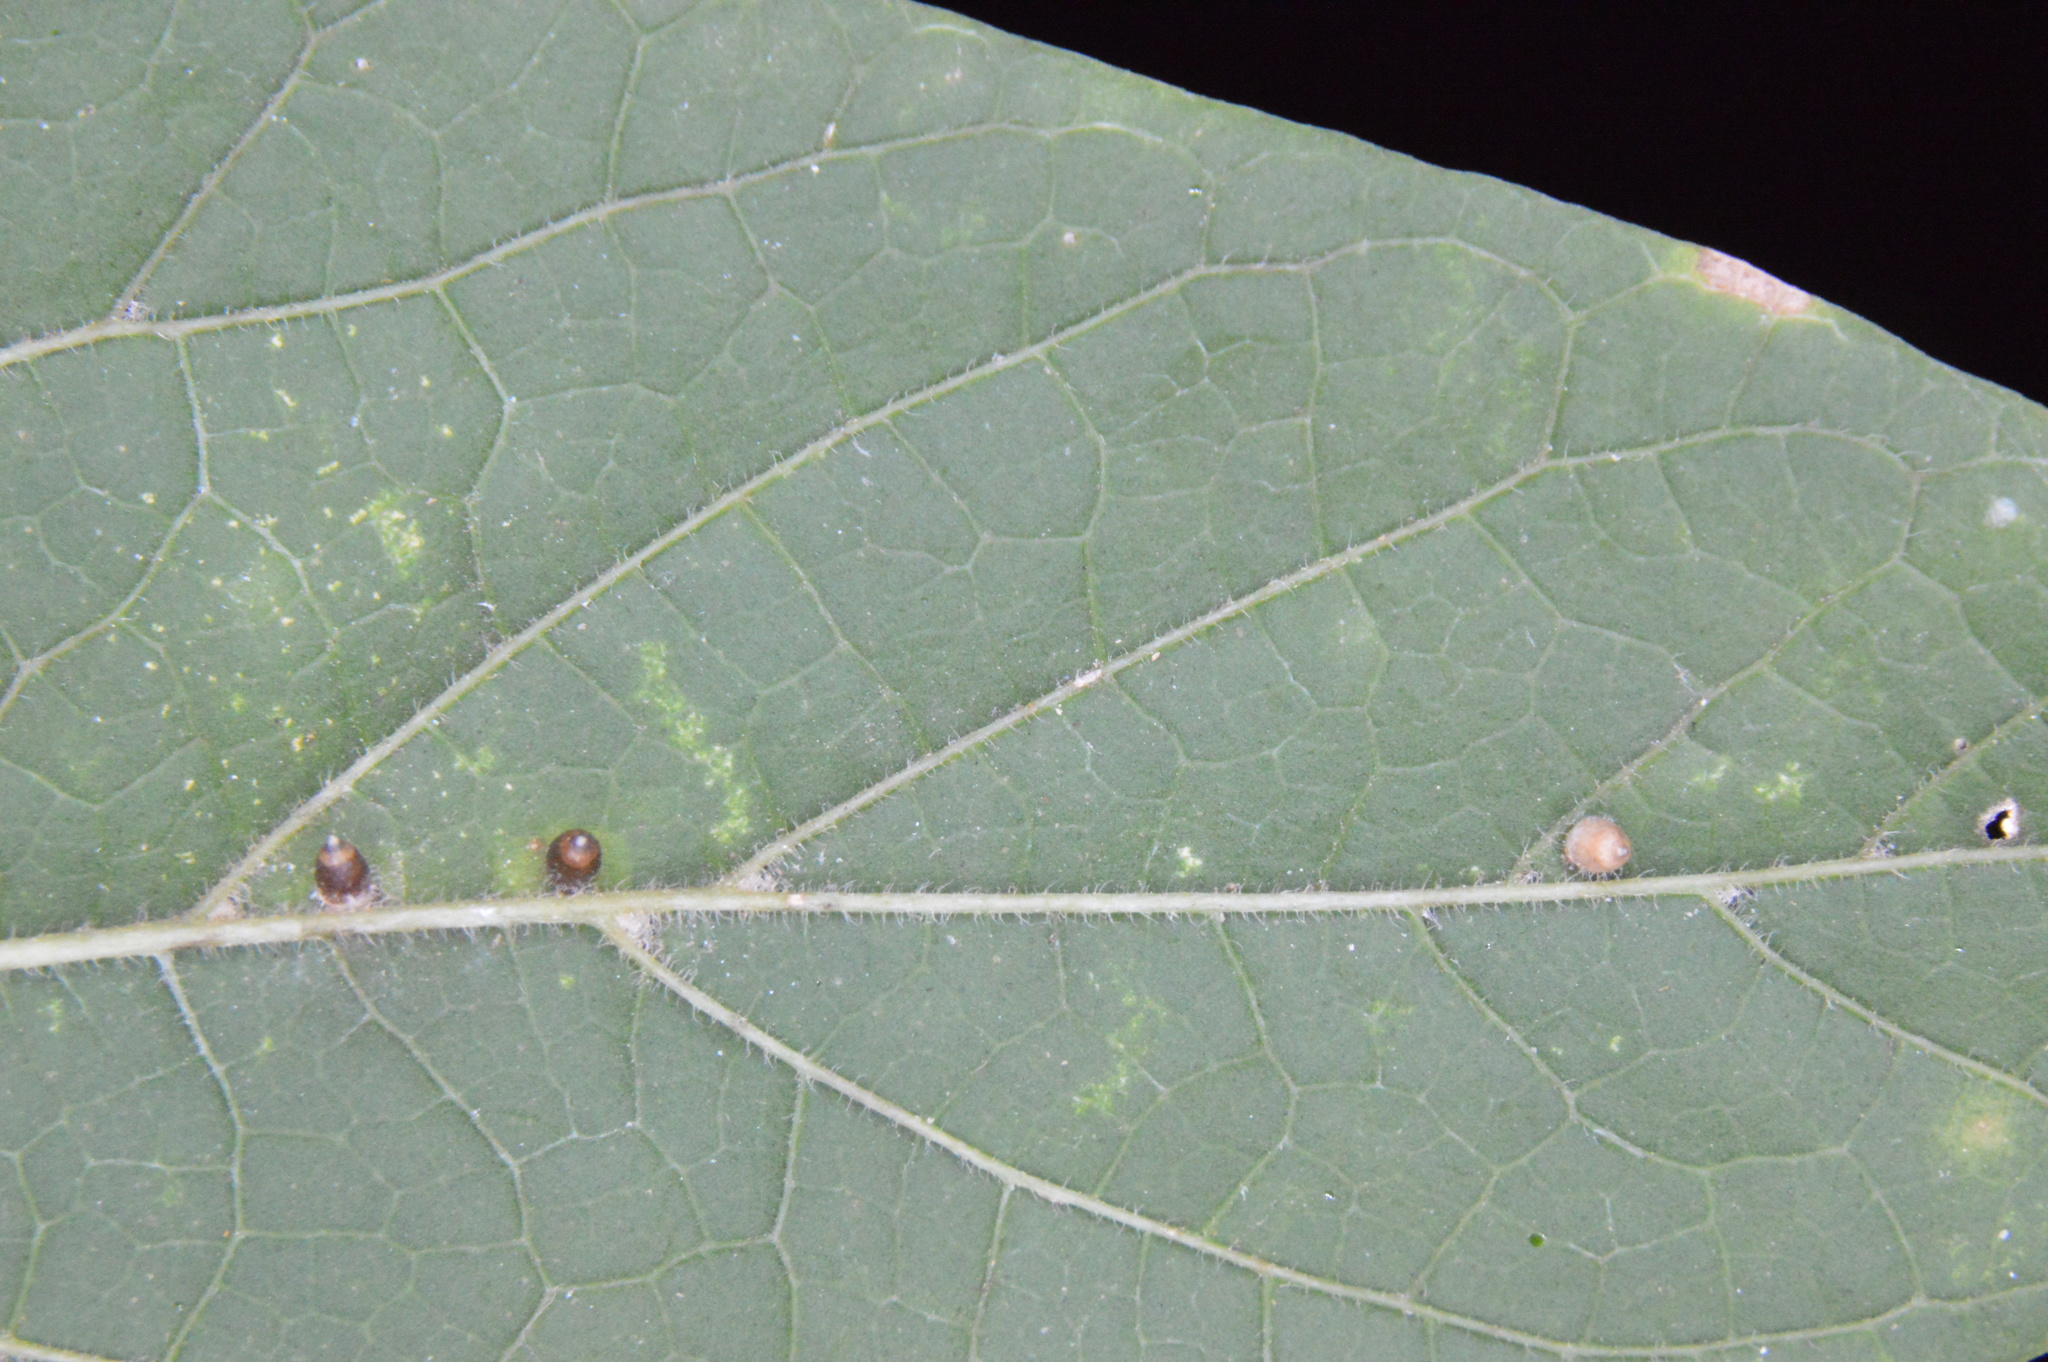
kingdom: Animalia
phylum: Arthropoda
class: Insecta
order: Diptera
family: Cecidomyiidae
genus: Celticecis
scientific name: Celticecis cupiformis
